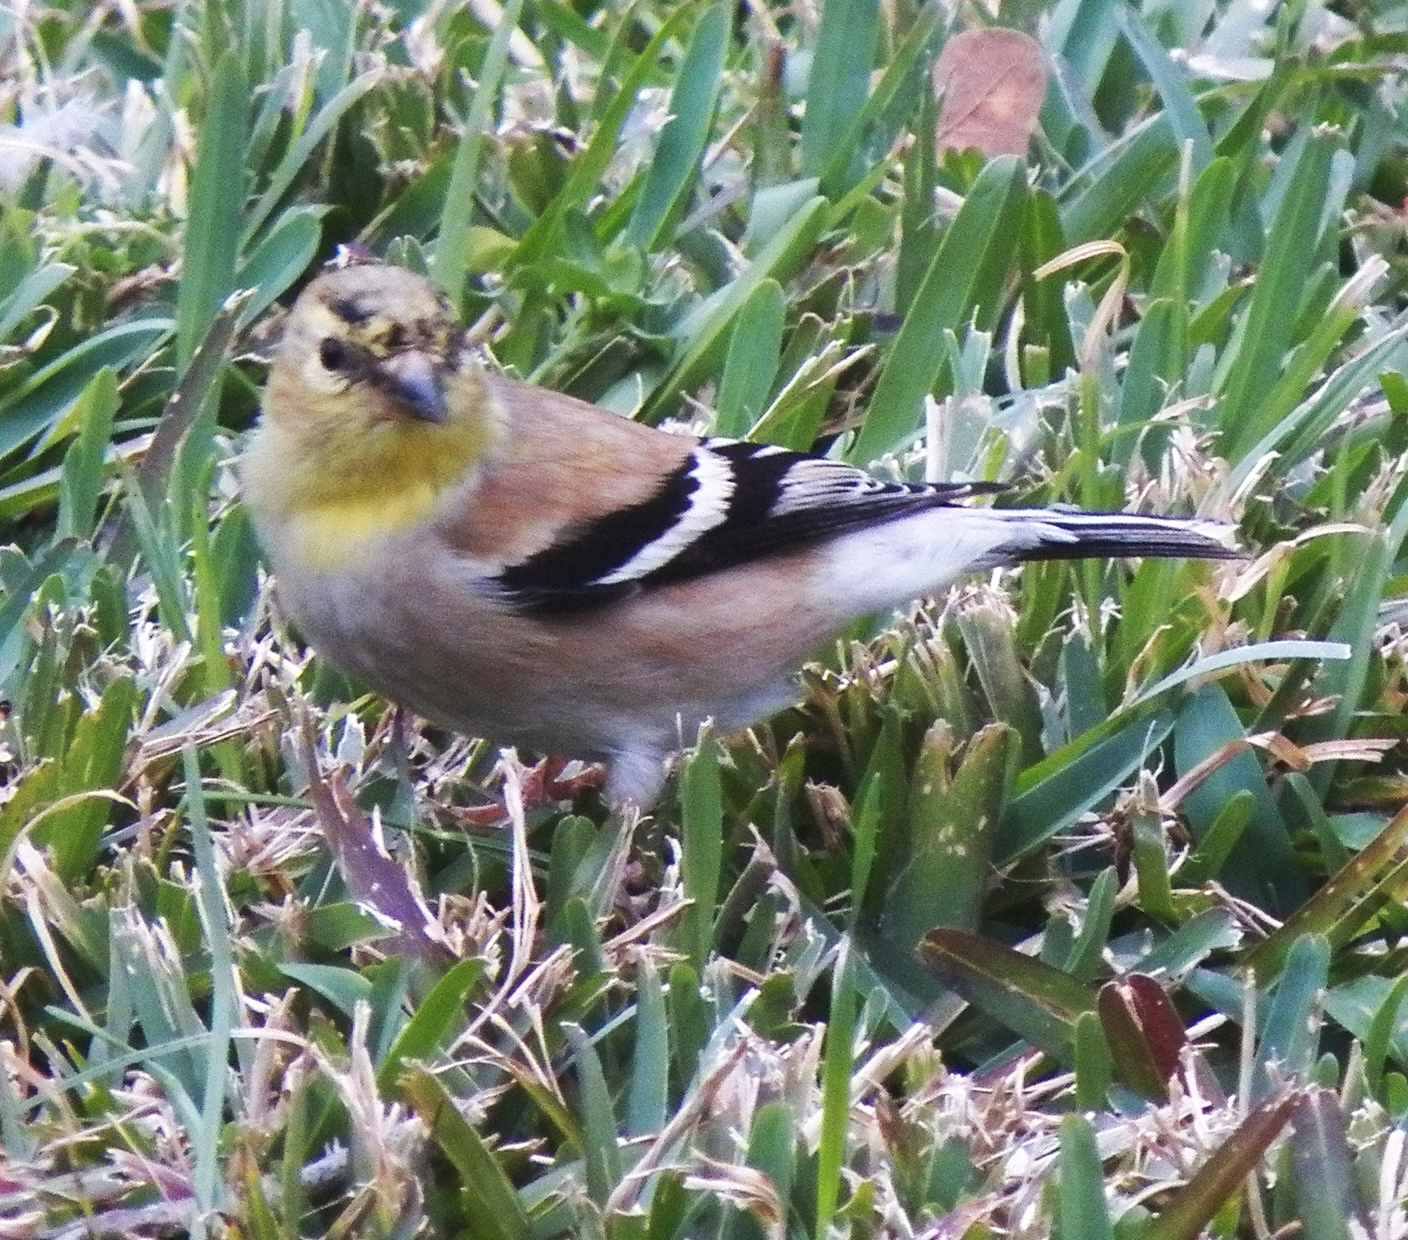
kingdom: Animalia
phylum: Chordata
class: Aves
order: Passeriformes
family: Fringillidae
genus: Spinus
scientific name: Spinus tristis
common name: American goldfinch
